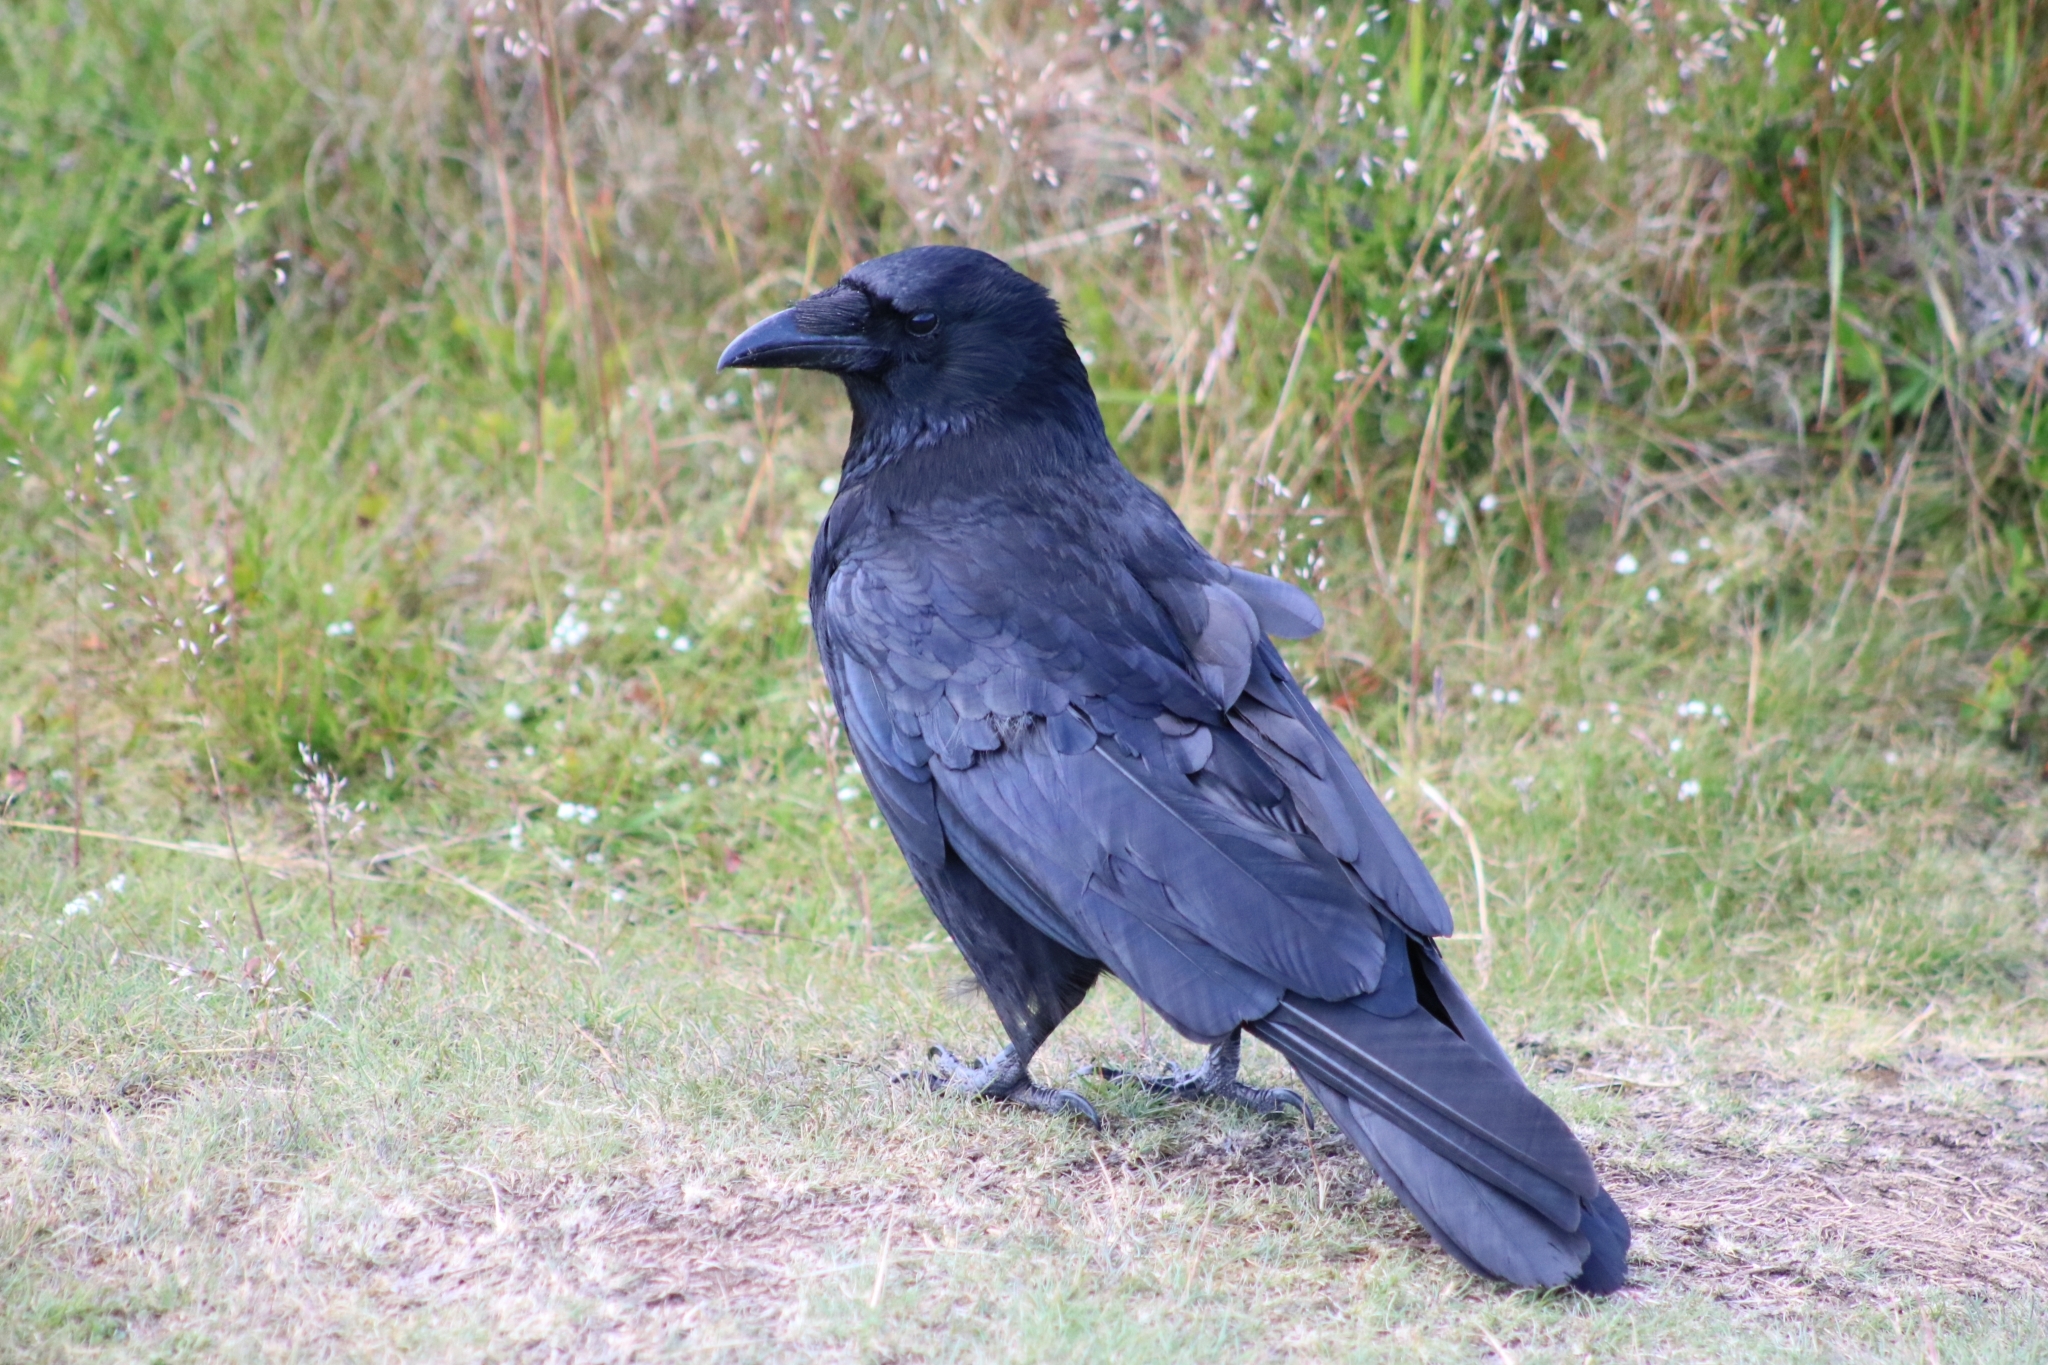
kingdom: Animalia
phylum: Chordata
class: Aves
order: Passeriformes
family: Corvidae
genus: Corvus
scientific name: Corvus corone
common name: Carrion crow
